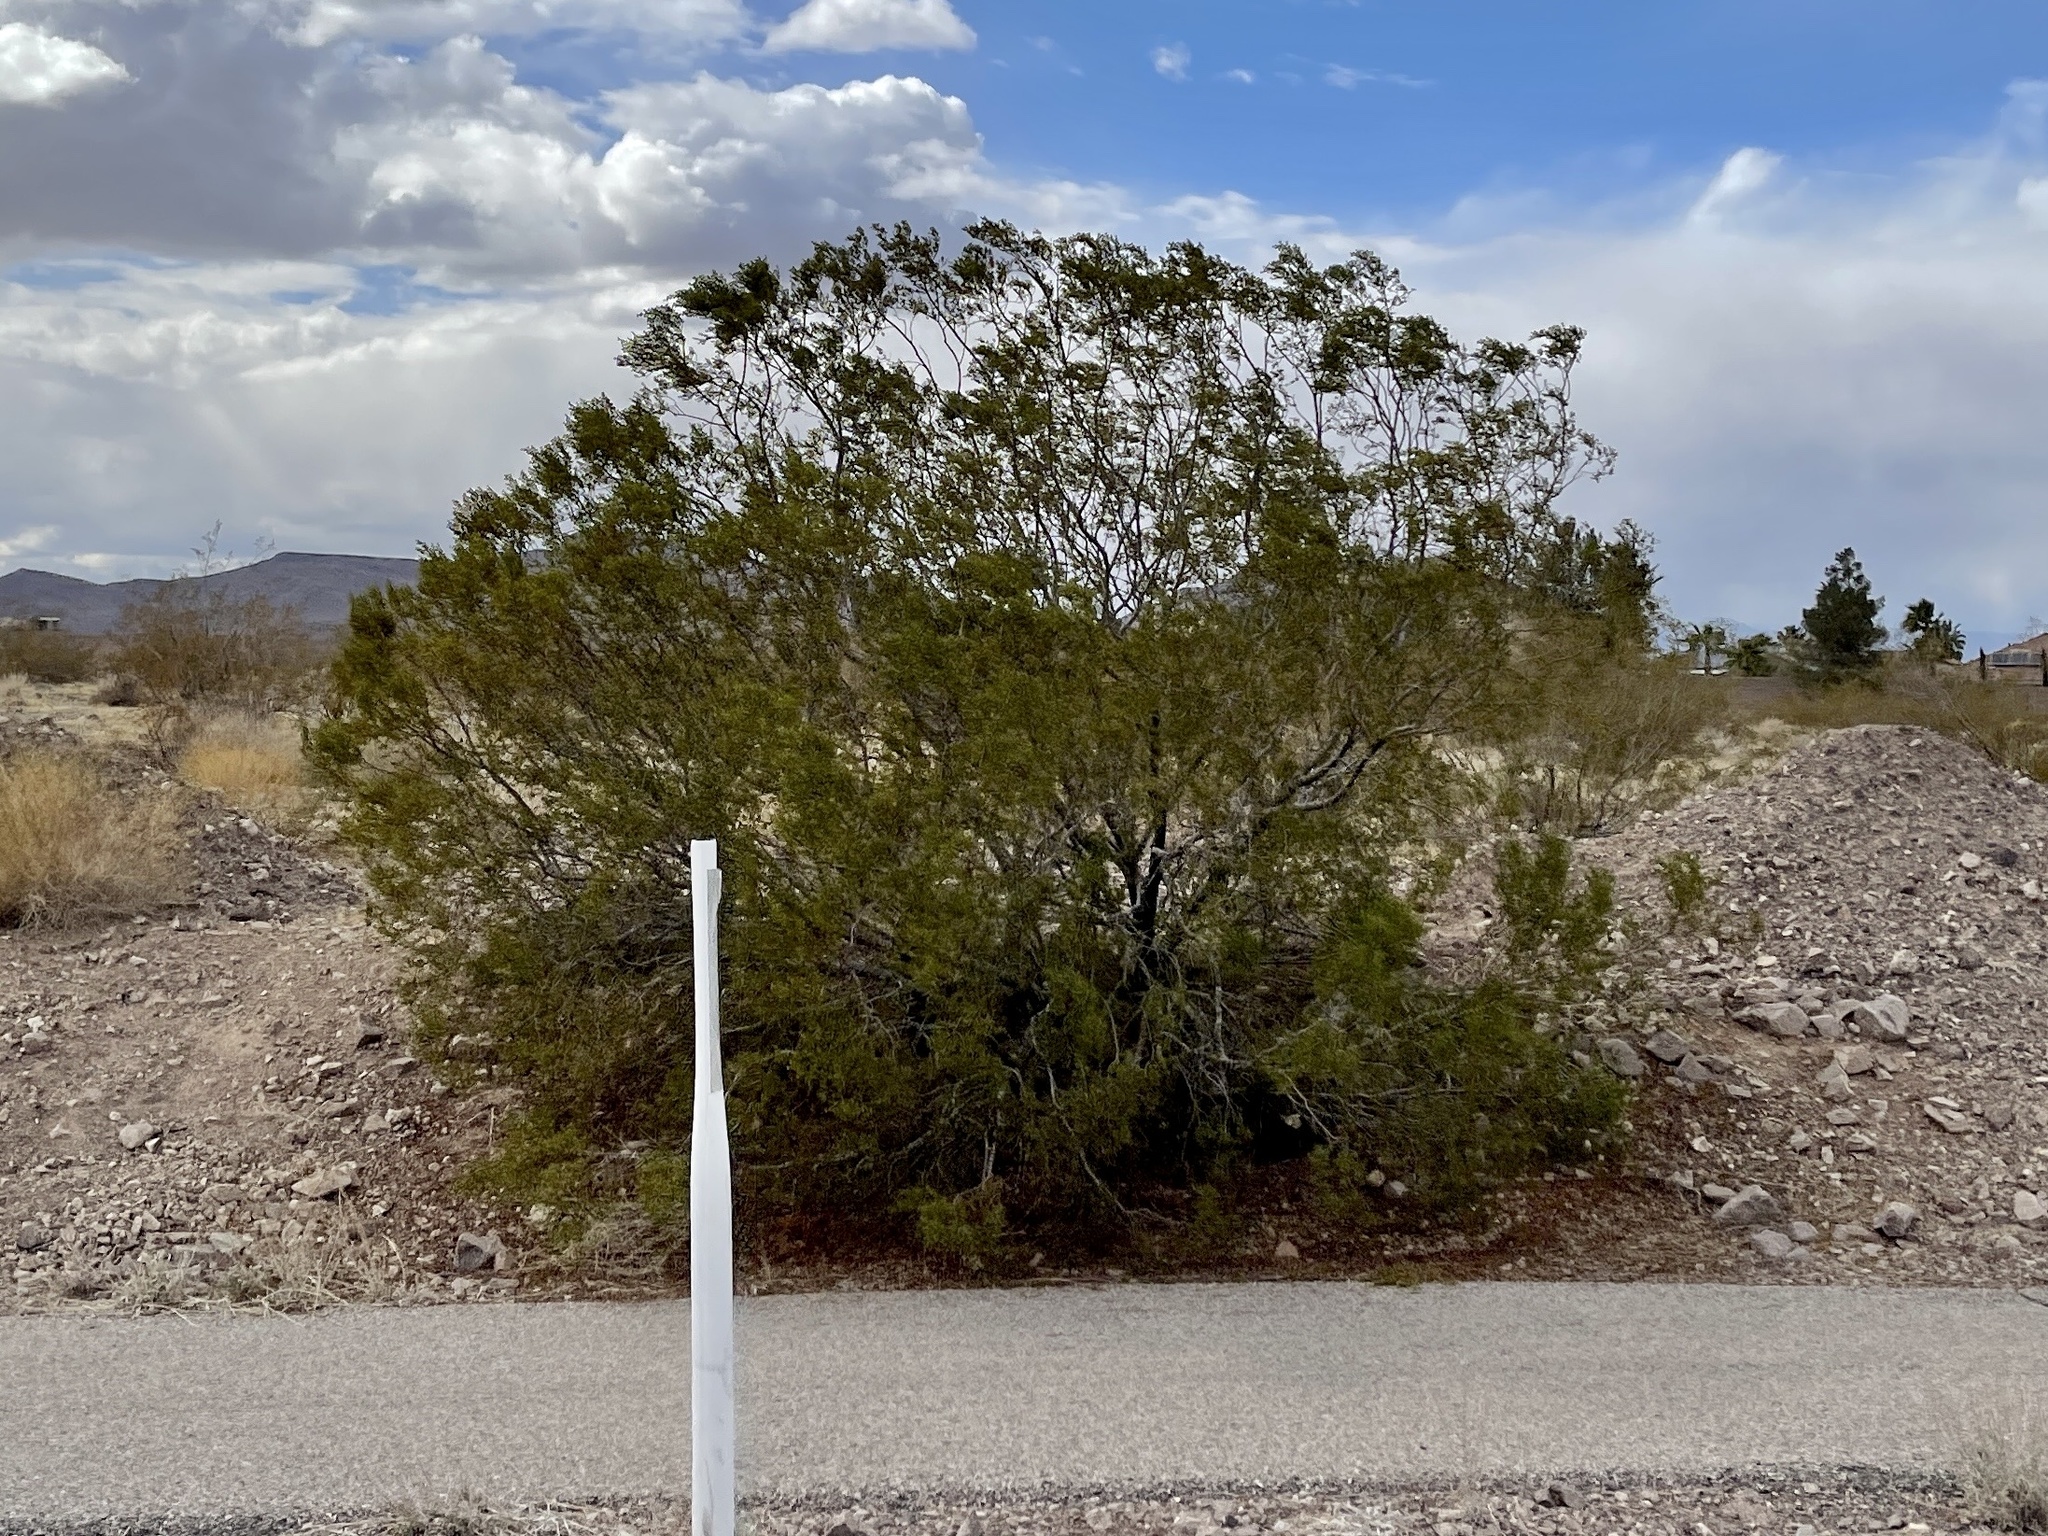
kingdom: Plantae
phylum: Tracheophyta
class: Magnoliopsida
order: Zygophyllales
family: Zygophyllaceae
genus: Larrea
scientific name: Larrea tridentata
